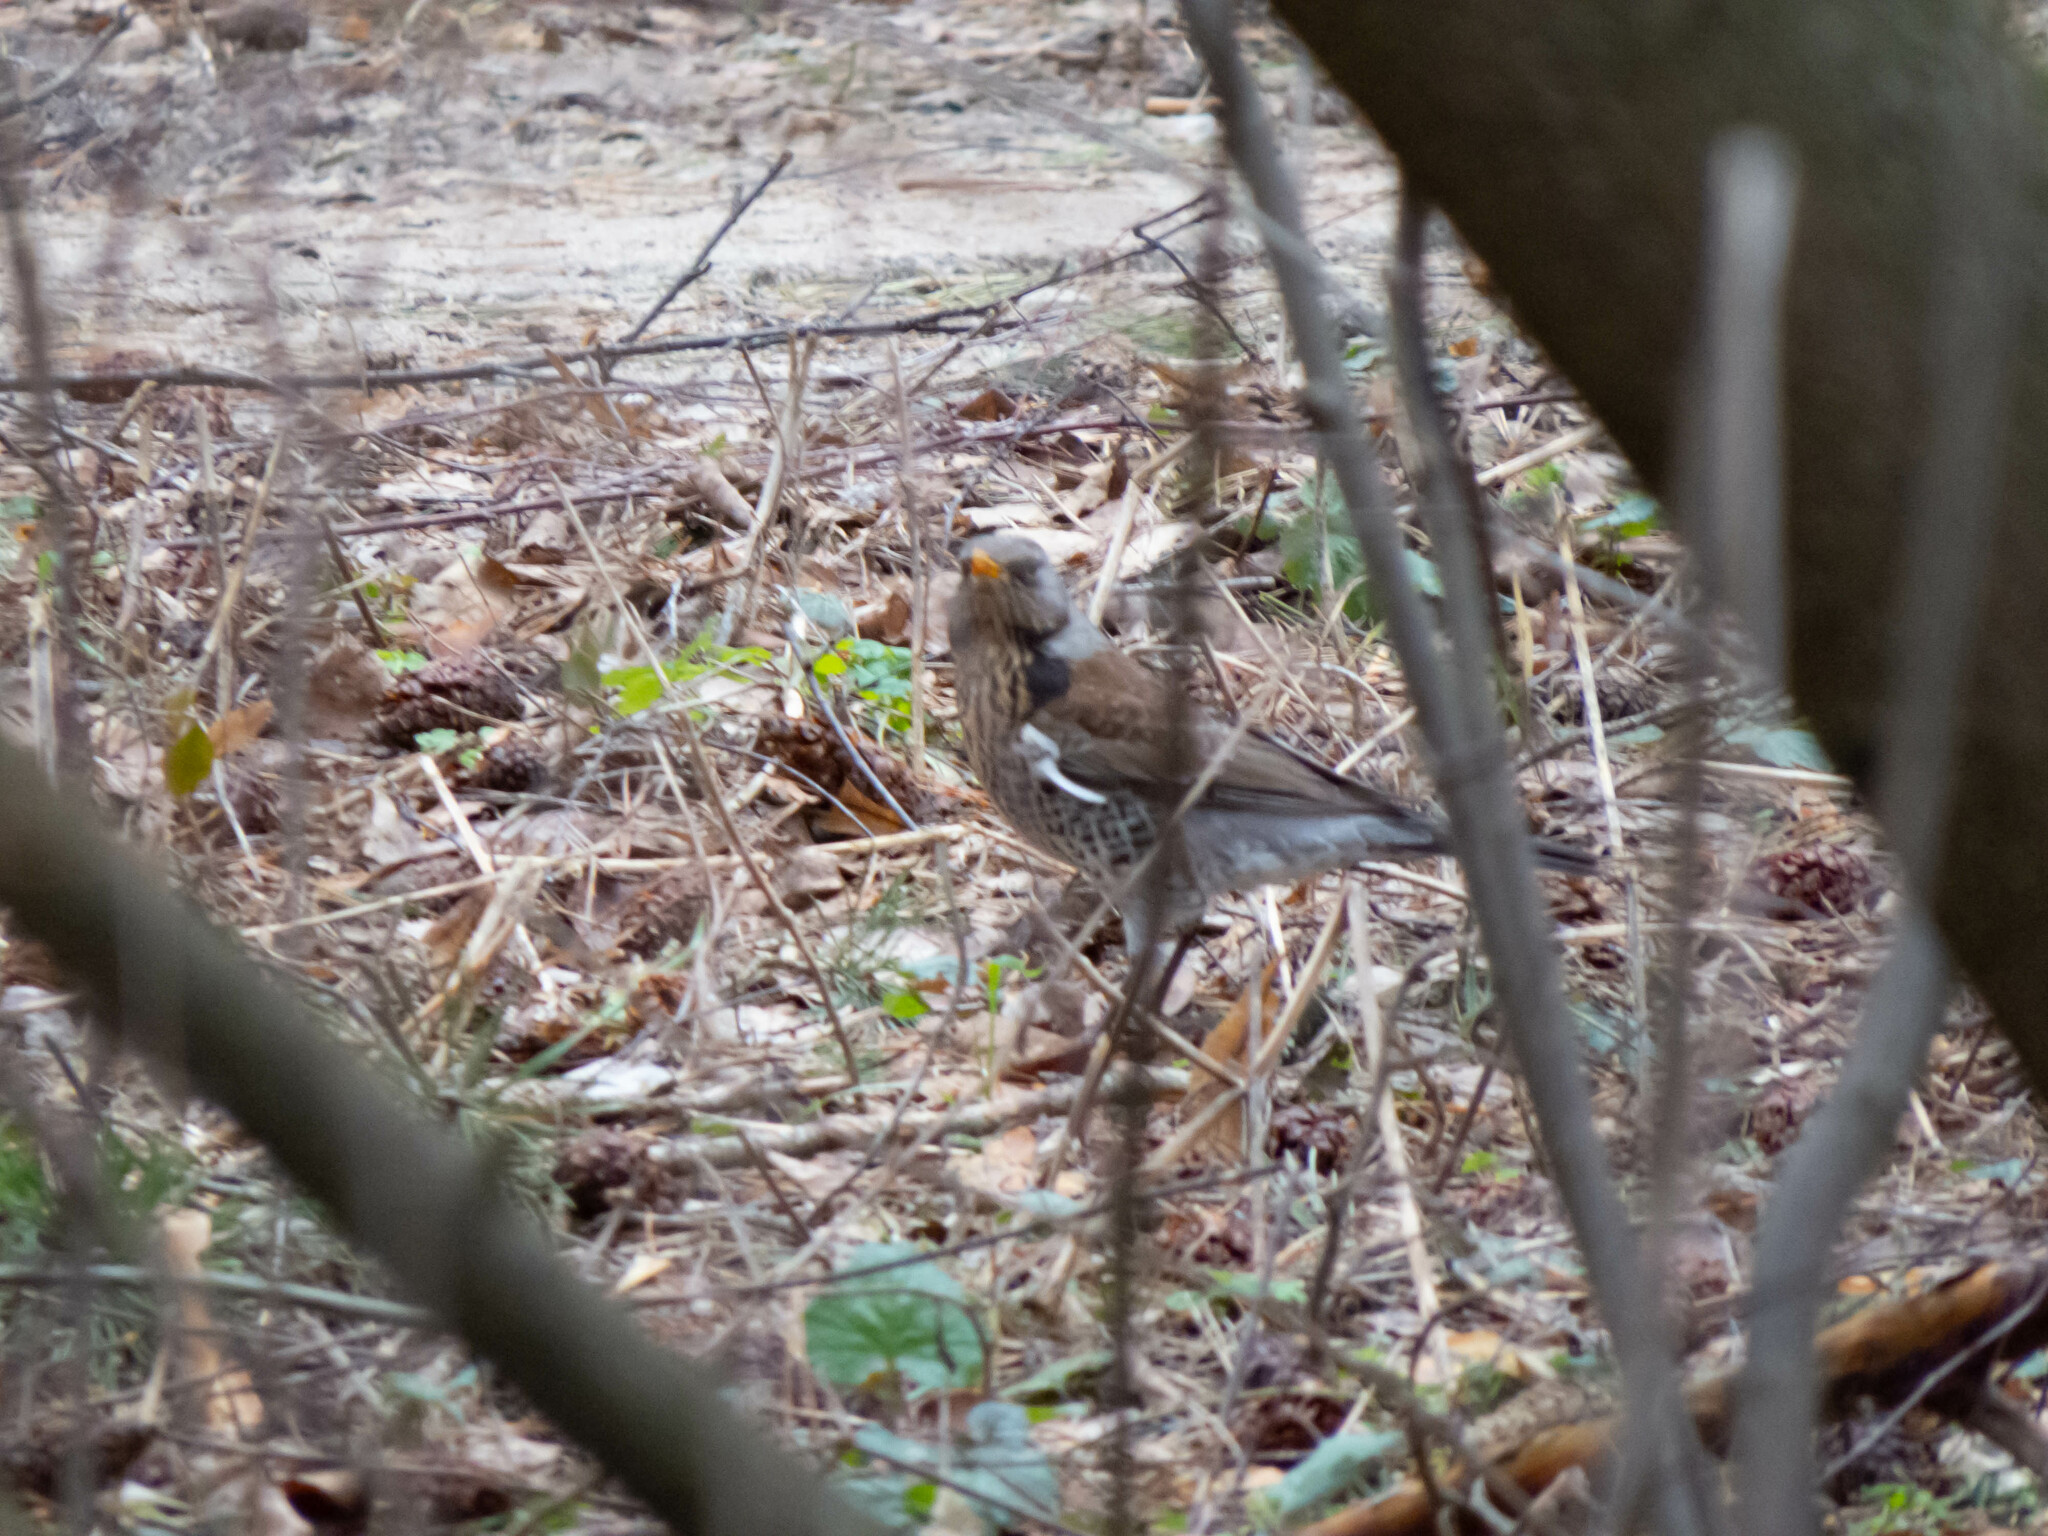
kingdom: Animalia
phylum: Chordata
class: Aves
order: Passeriformes
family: Turdidae
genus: Turdus
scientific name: Turdus pilaris
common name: Fieldfare
